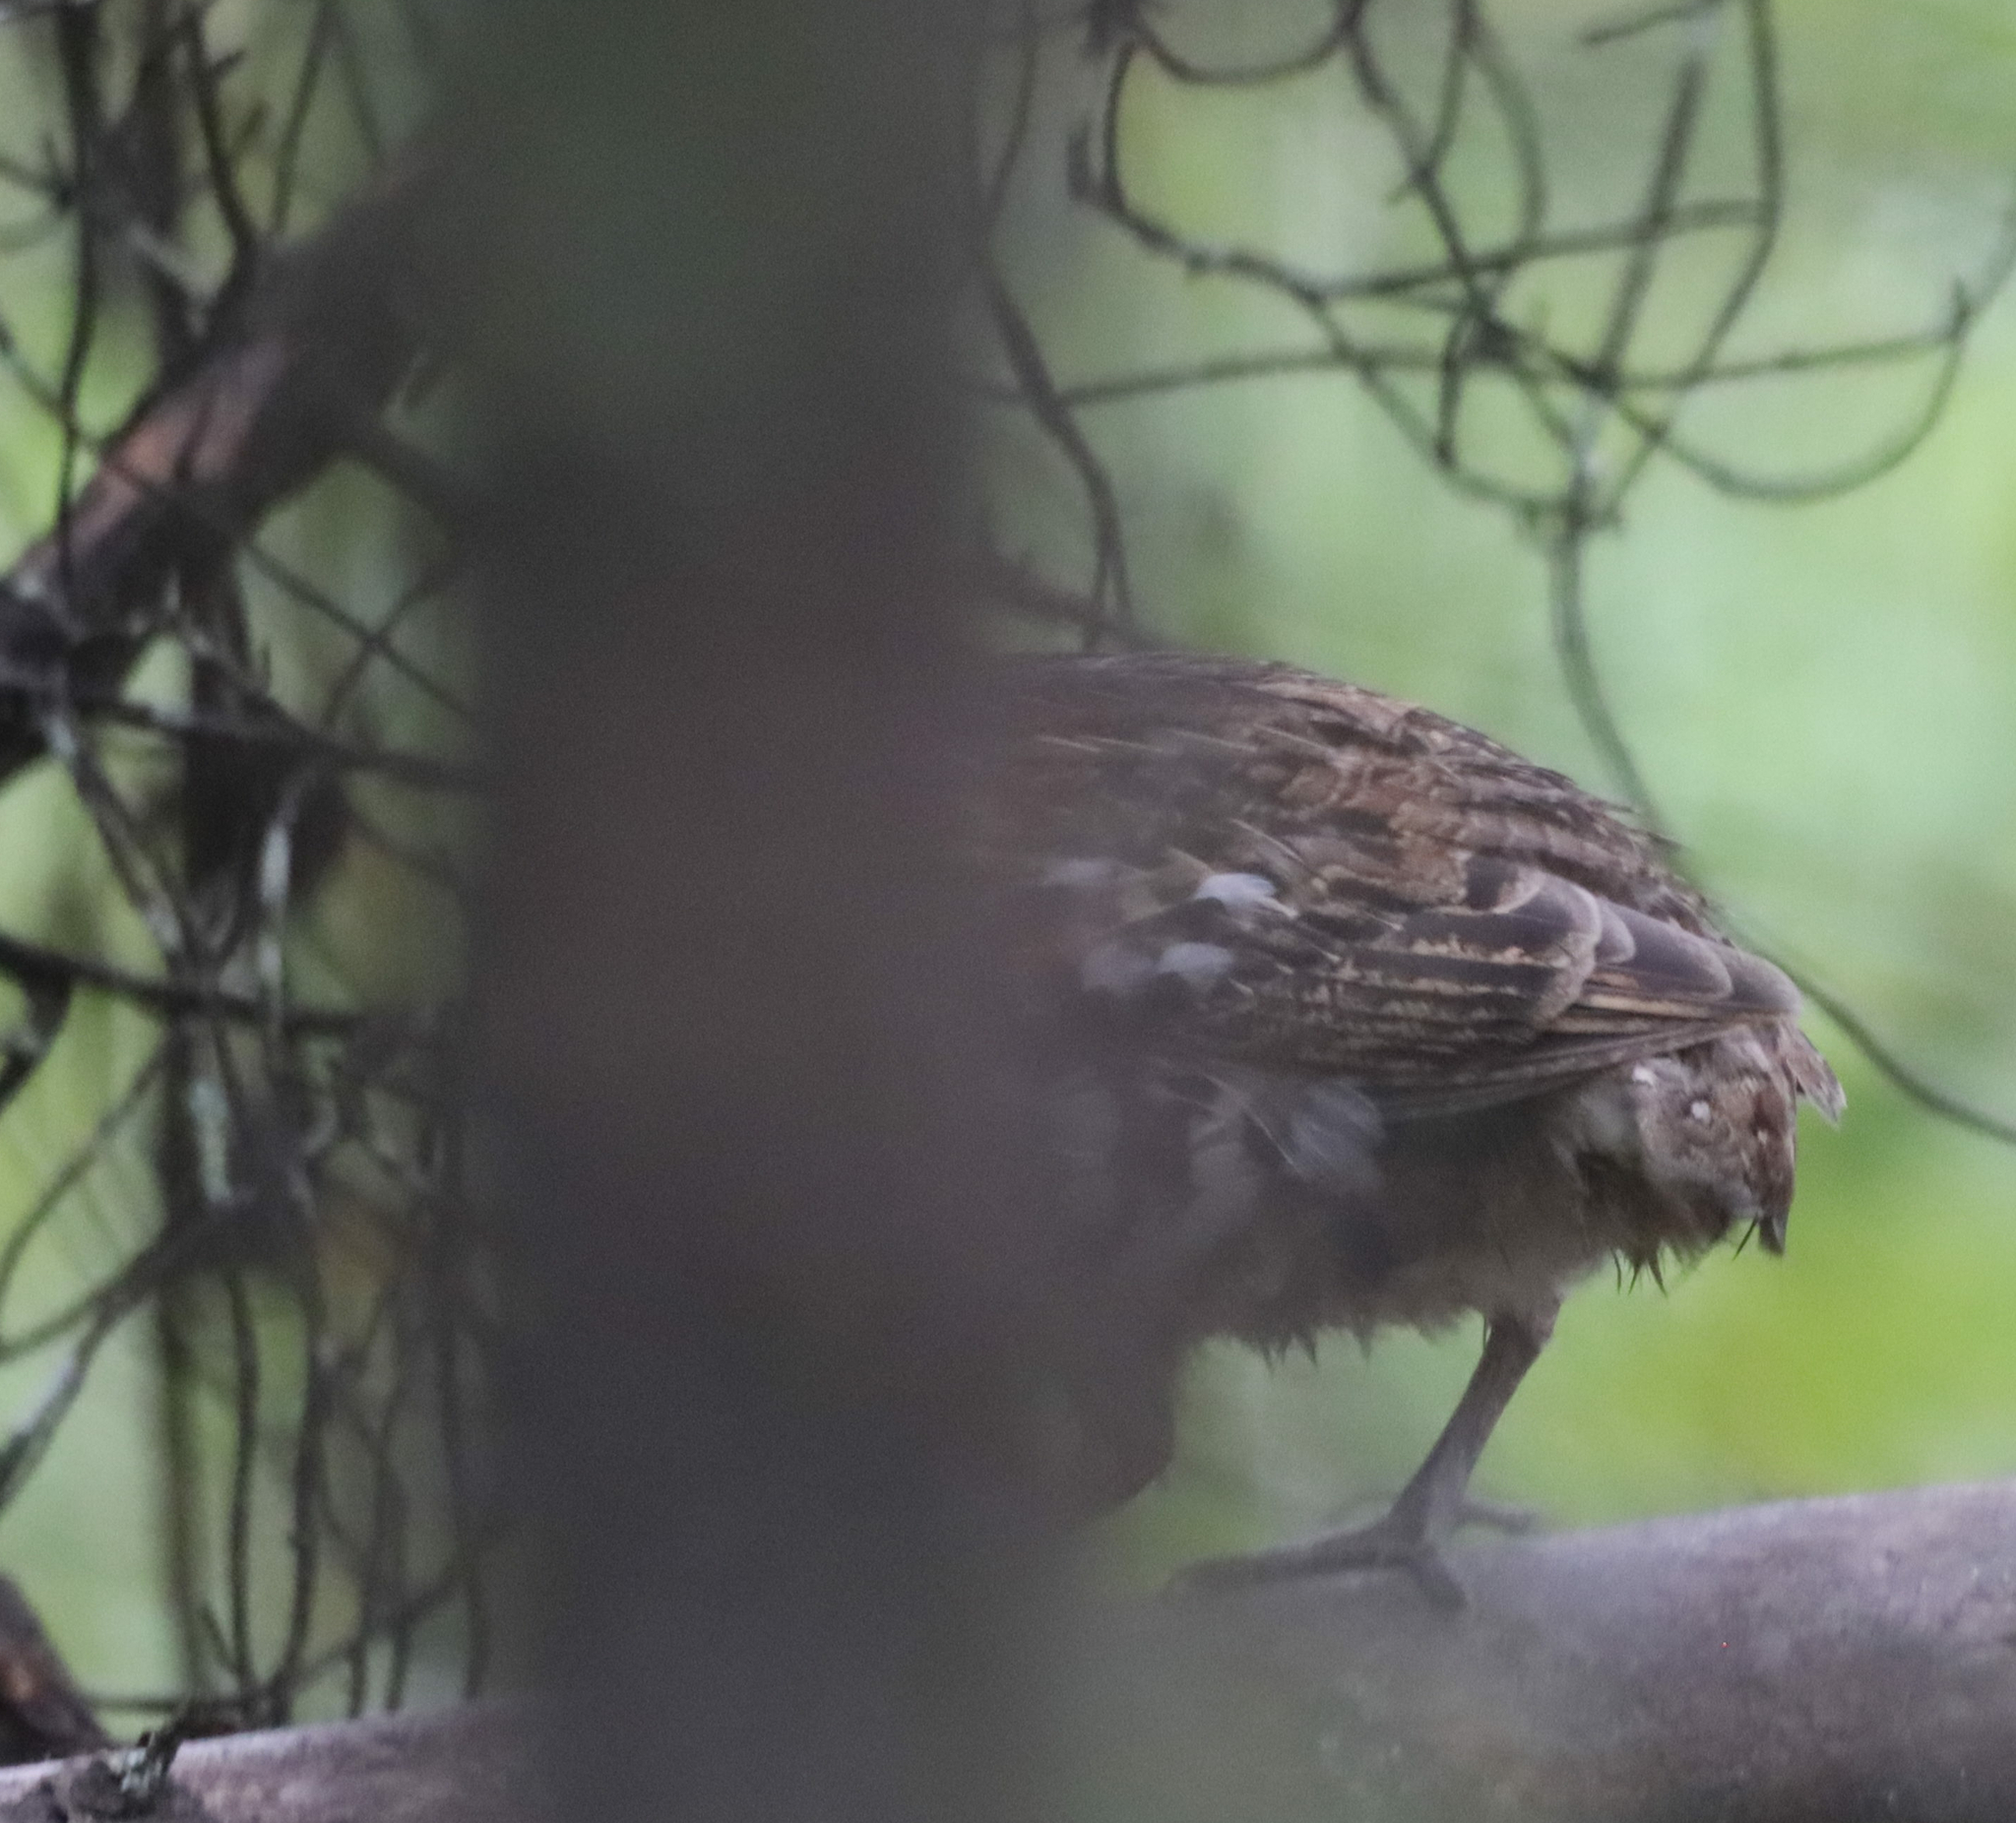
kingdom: Animalia
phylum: Chordata
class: Aves
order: Galliformes
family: Phasianidae
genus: Bonasa
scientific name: Bonasa umbellus
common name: Ruffed grouse
